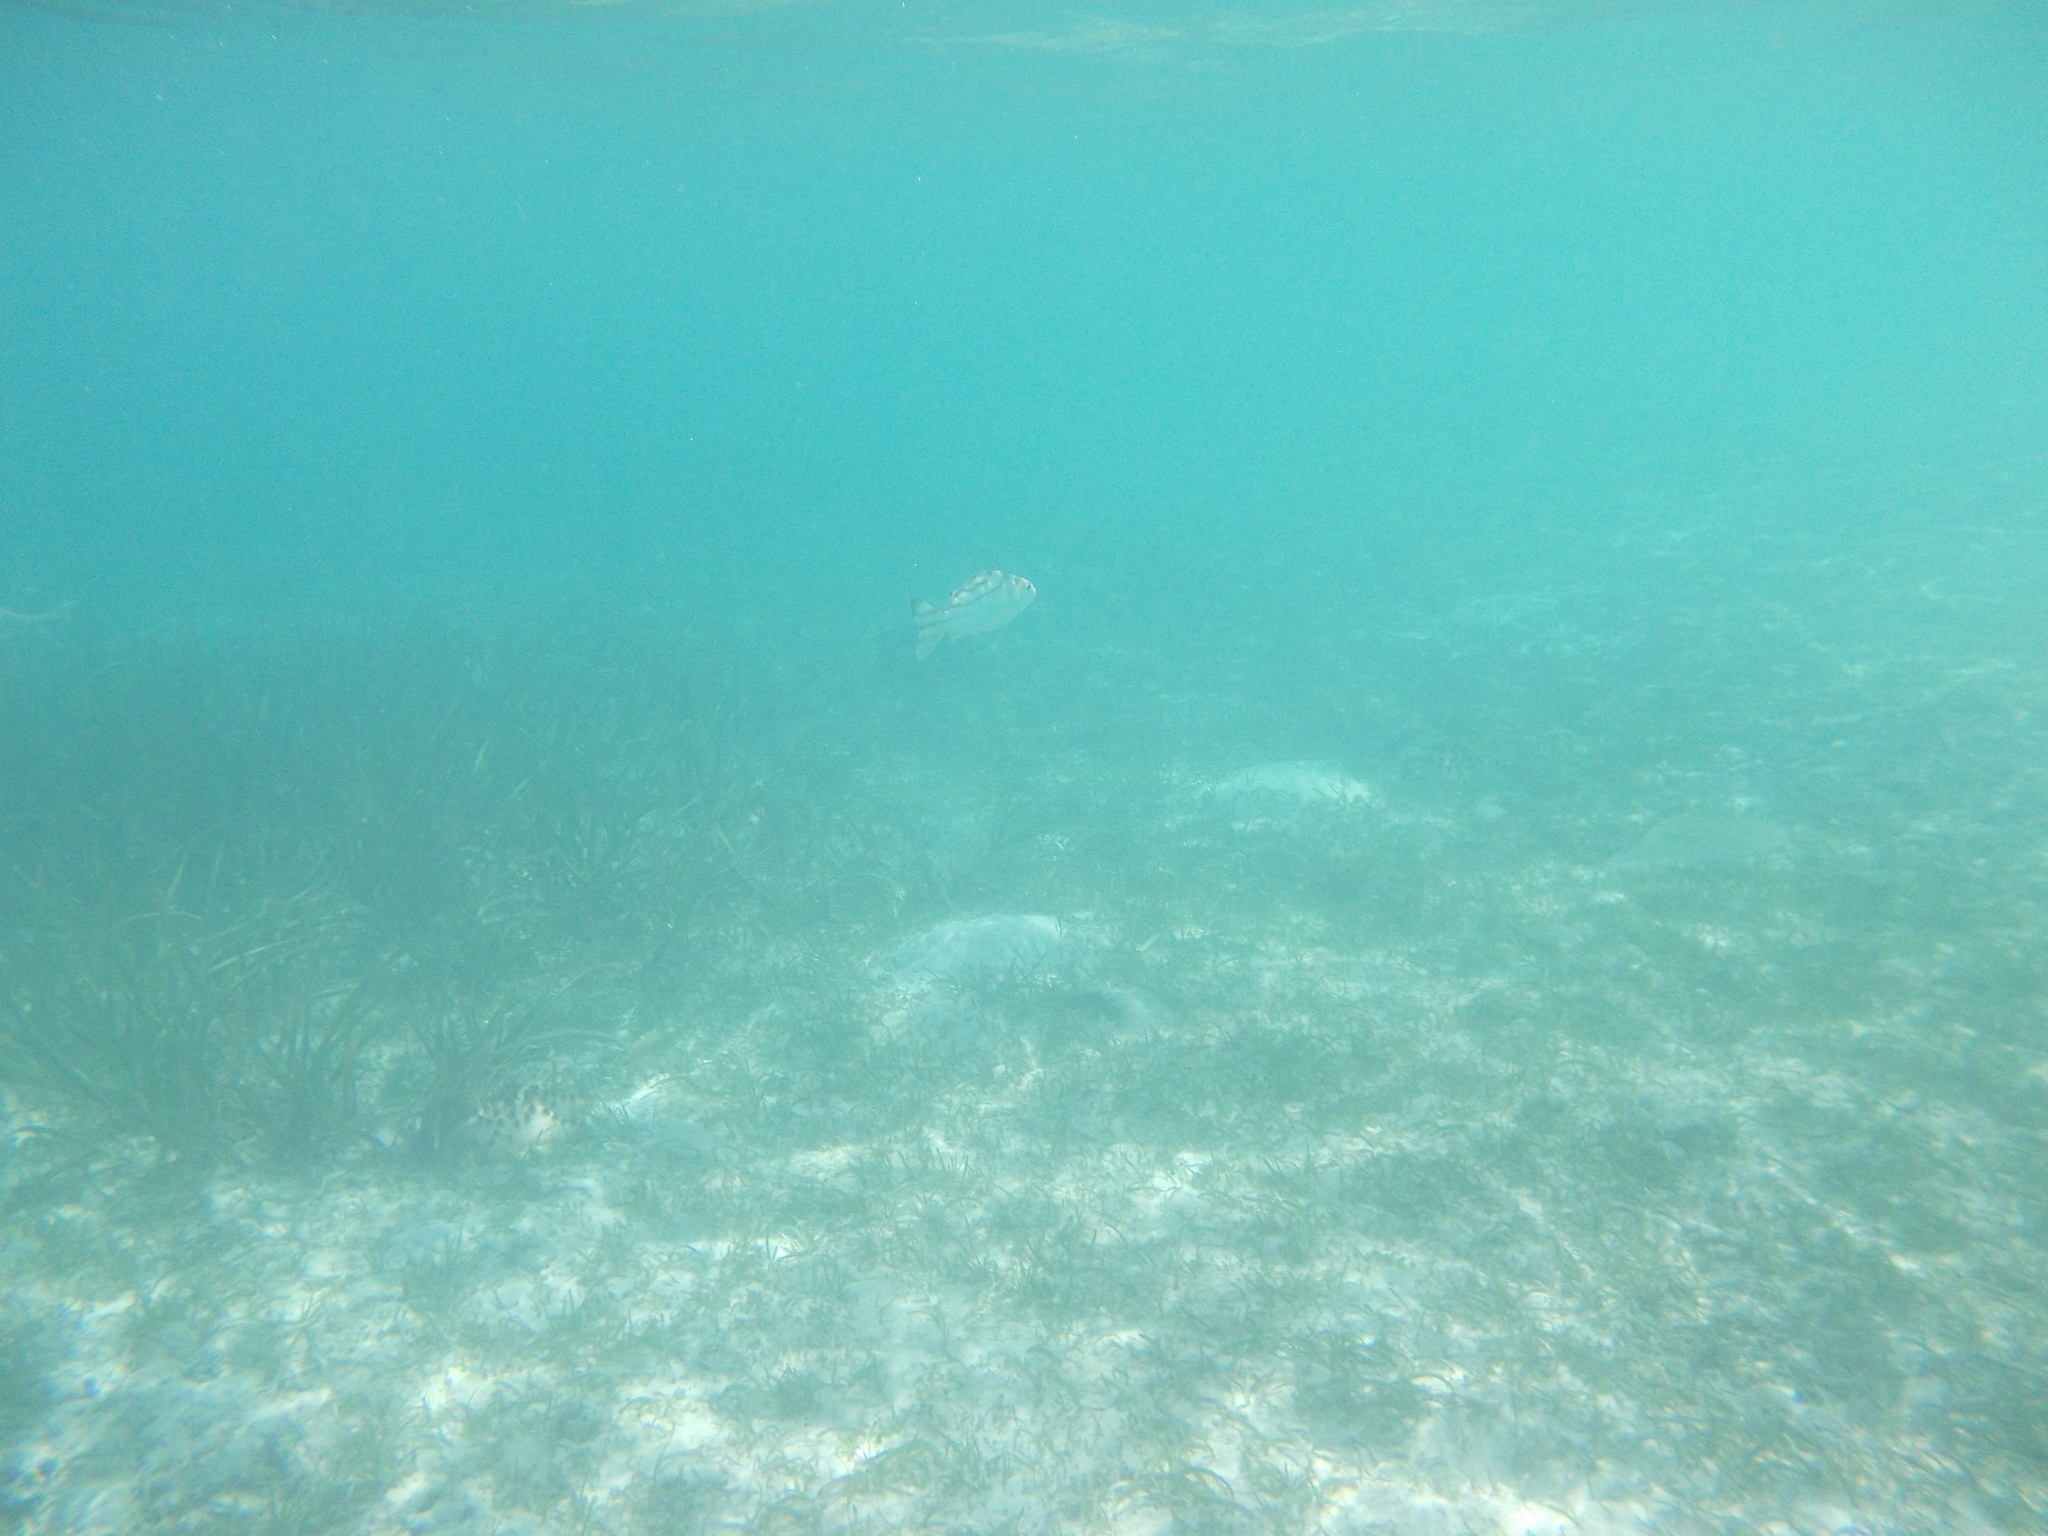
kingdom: Animalia
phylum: Chordata
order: Perciformes
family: Terapontidae
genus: Terapon
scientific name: Terapon jarbua
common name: Jarbua terapon
